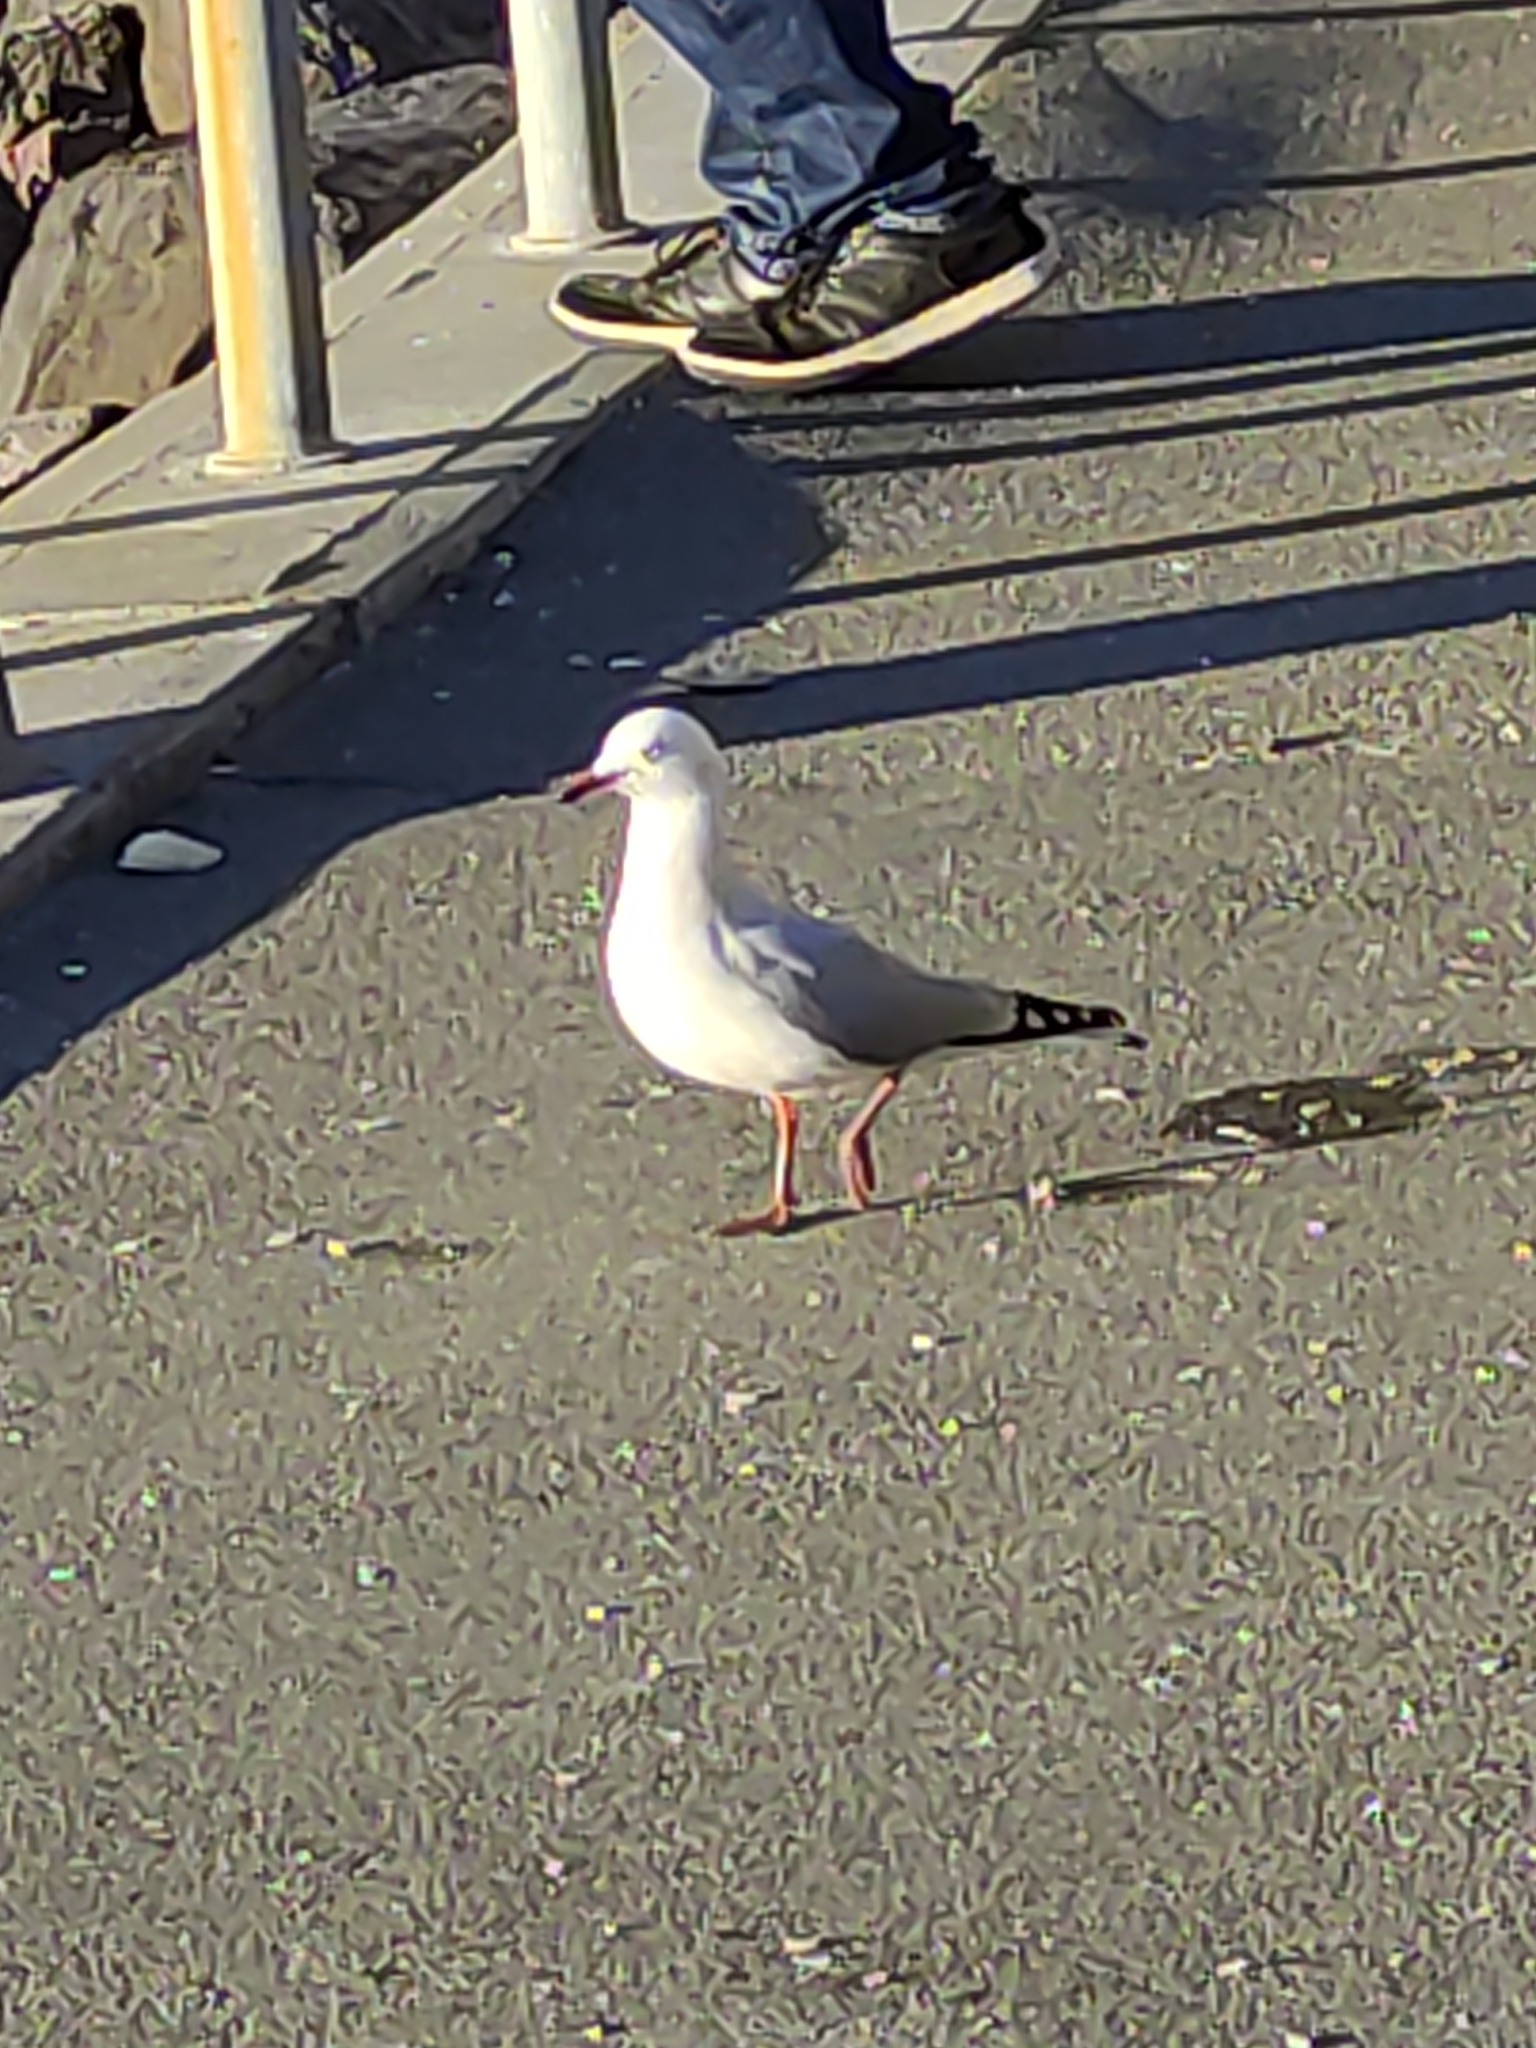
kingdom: Animalia
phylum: Chordata
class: Aves
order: Charadriiformes
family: Laridae
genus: Chroicocephalus
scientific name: Chroicocephalus novaehollandiae
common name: Silver gull
